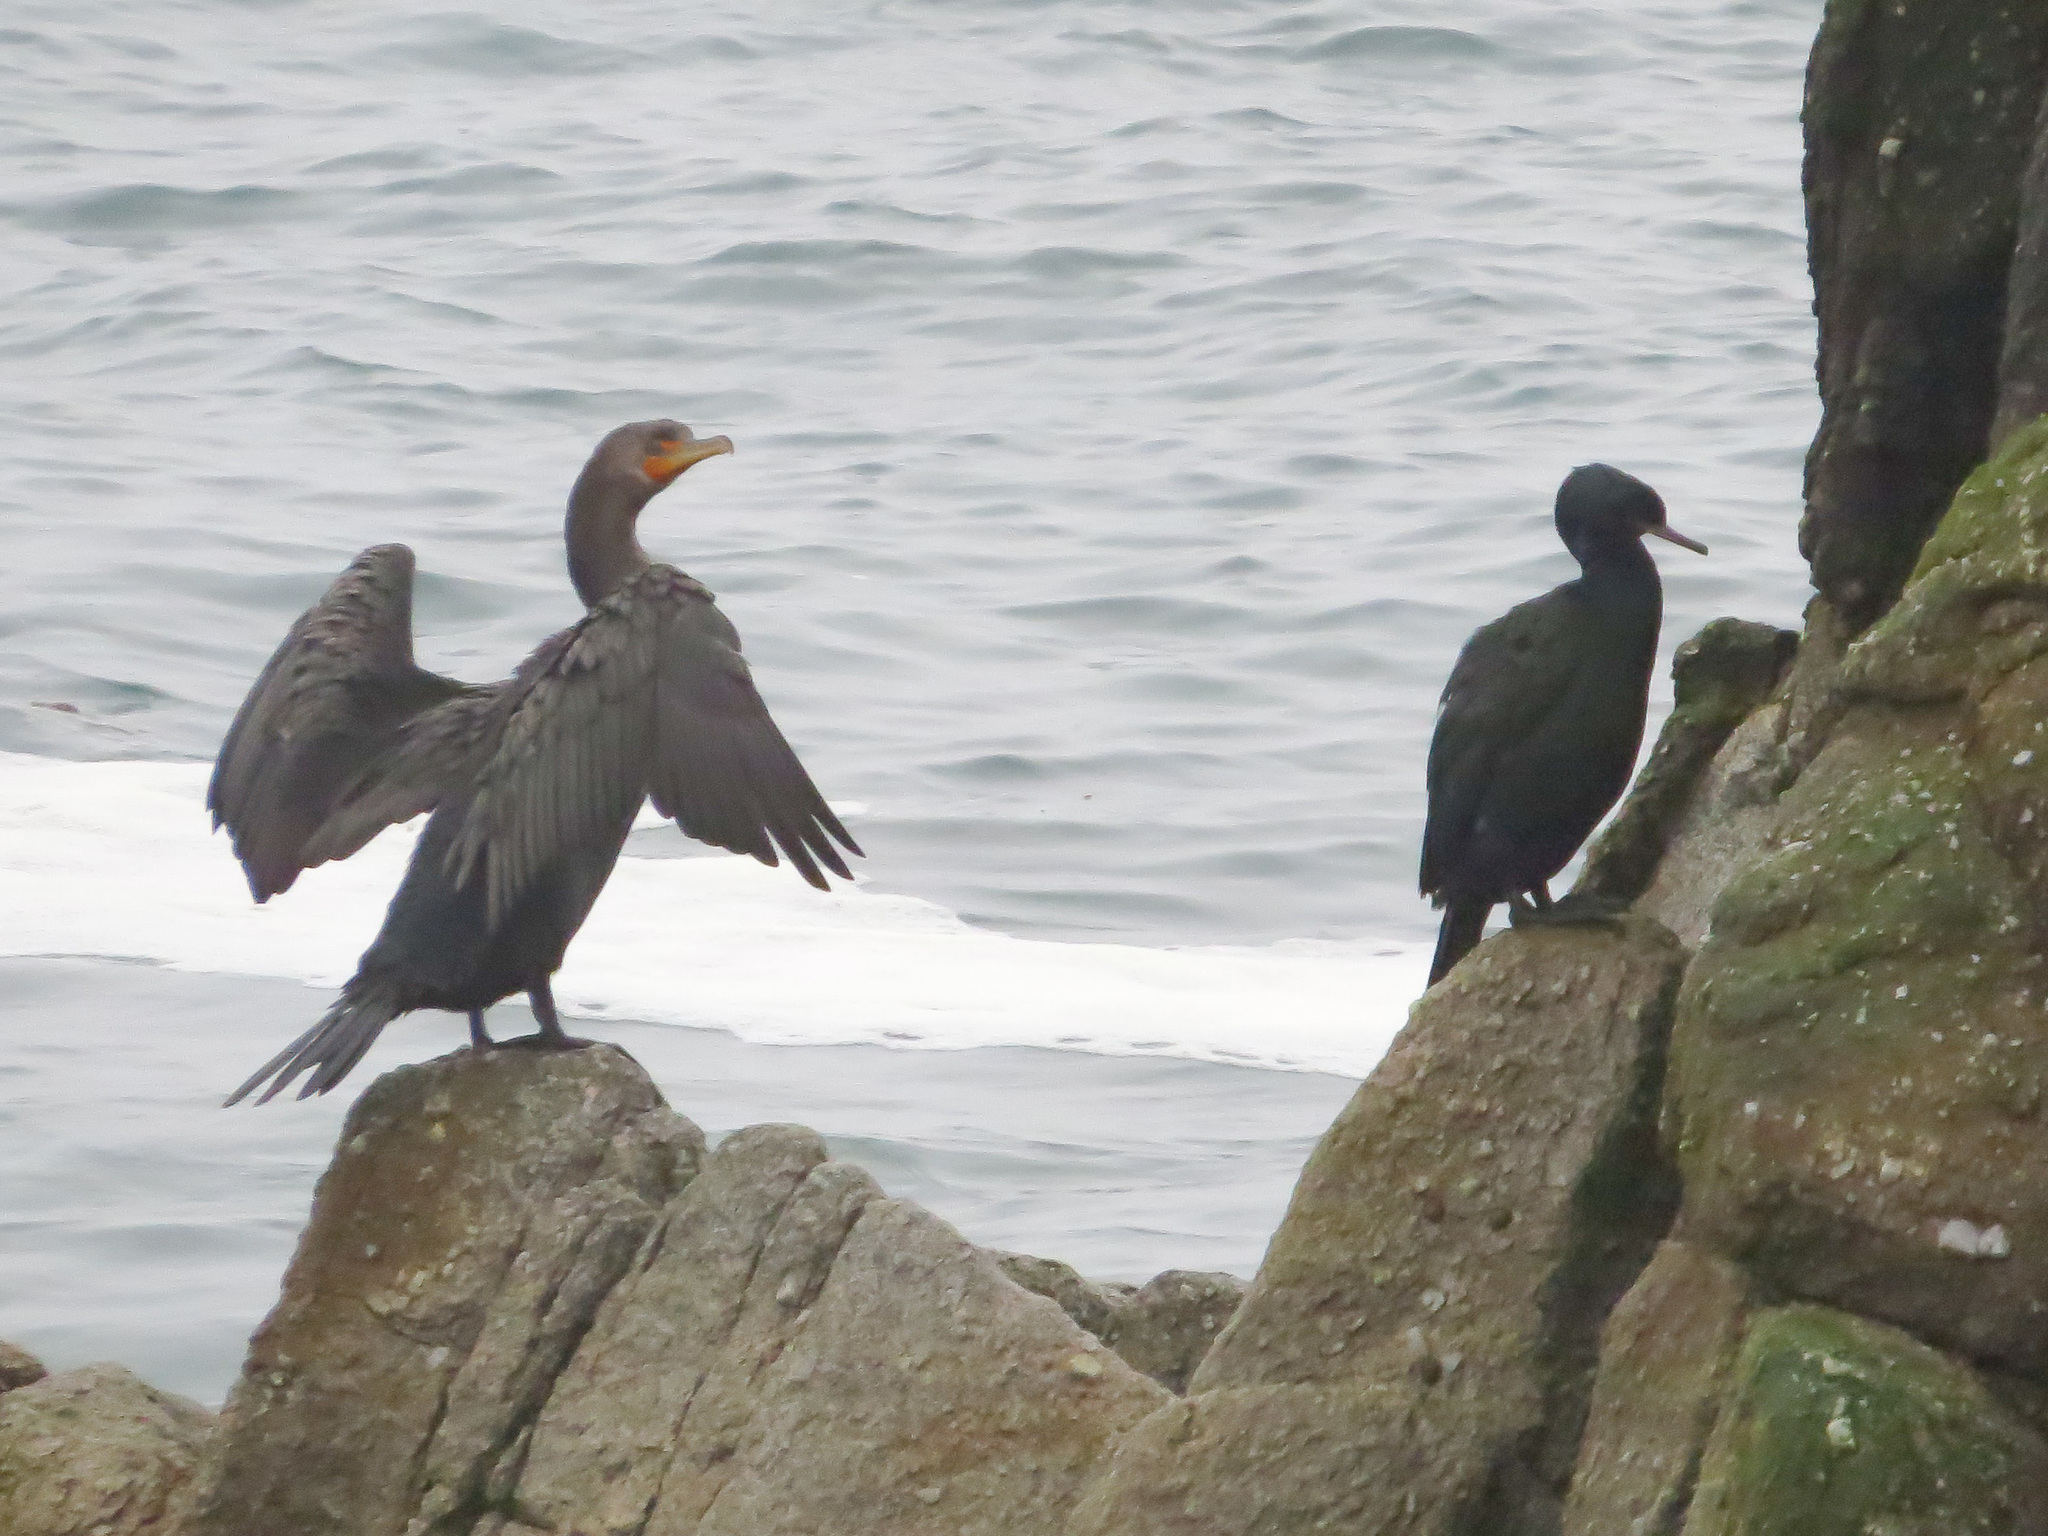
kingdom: Animalia
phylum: Chordata
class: Aves
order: Suliformes
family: Phalacrocoracidae
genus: Phalacrocorax
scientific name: Phalacrocorax auritus
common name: Double-crested cormorant
